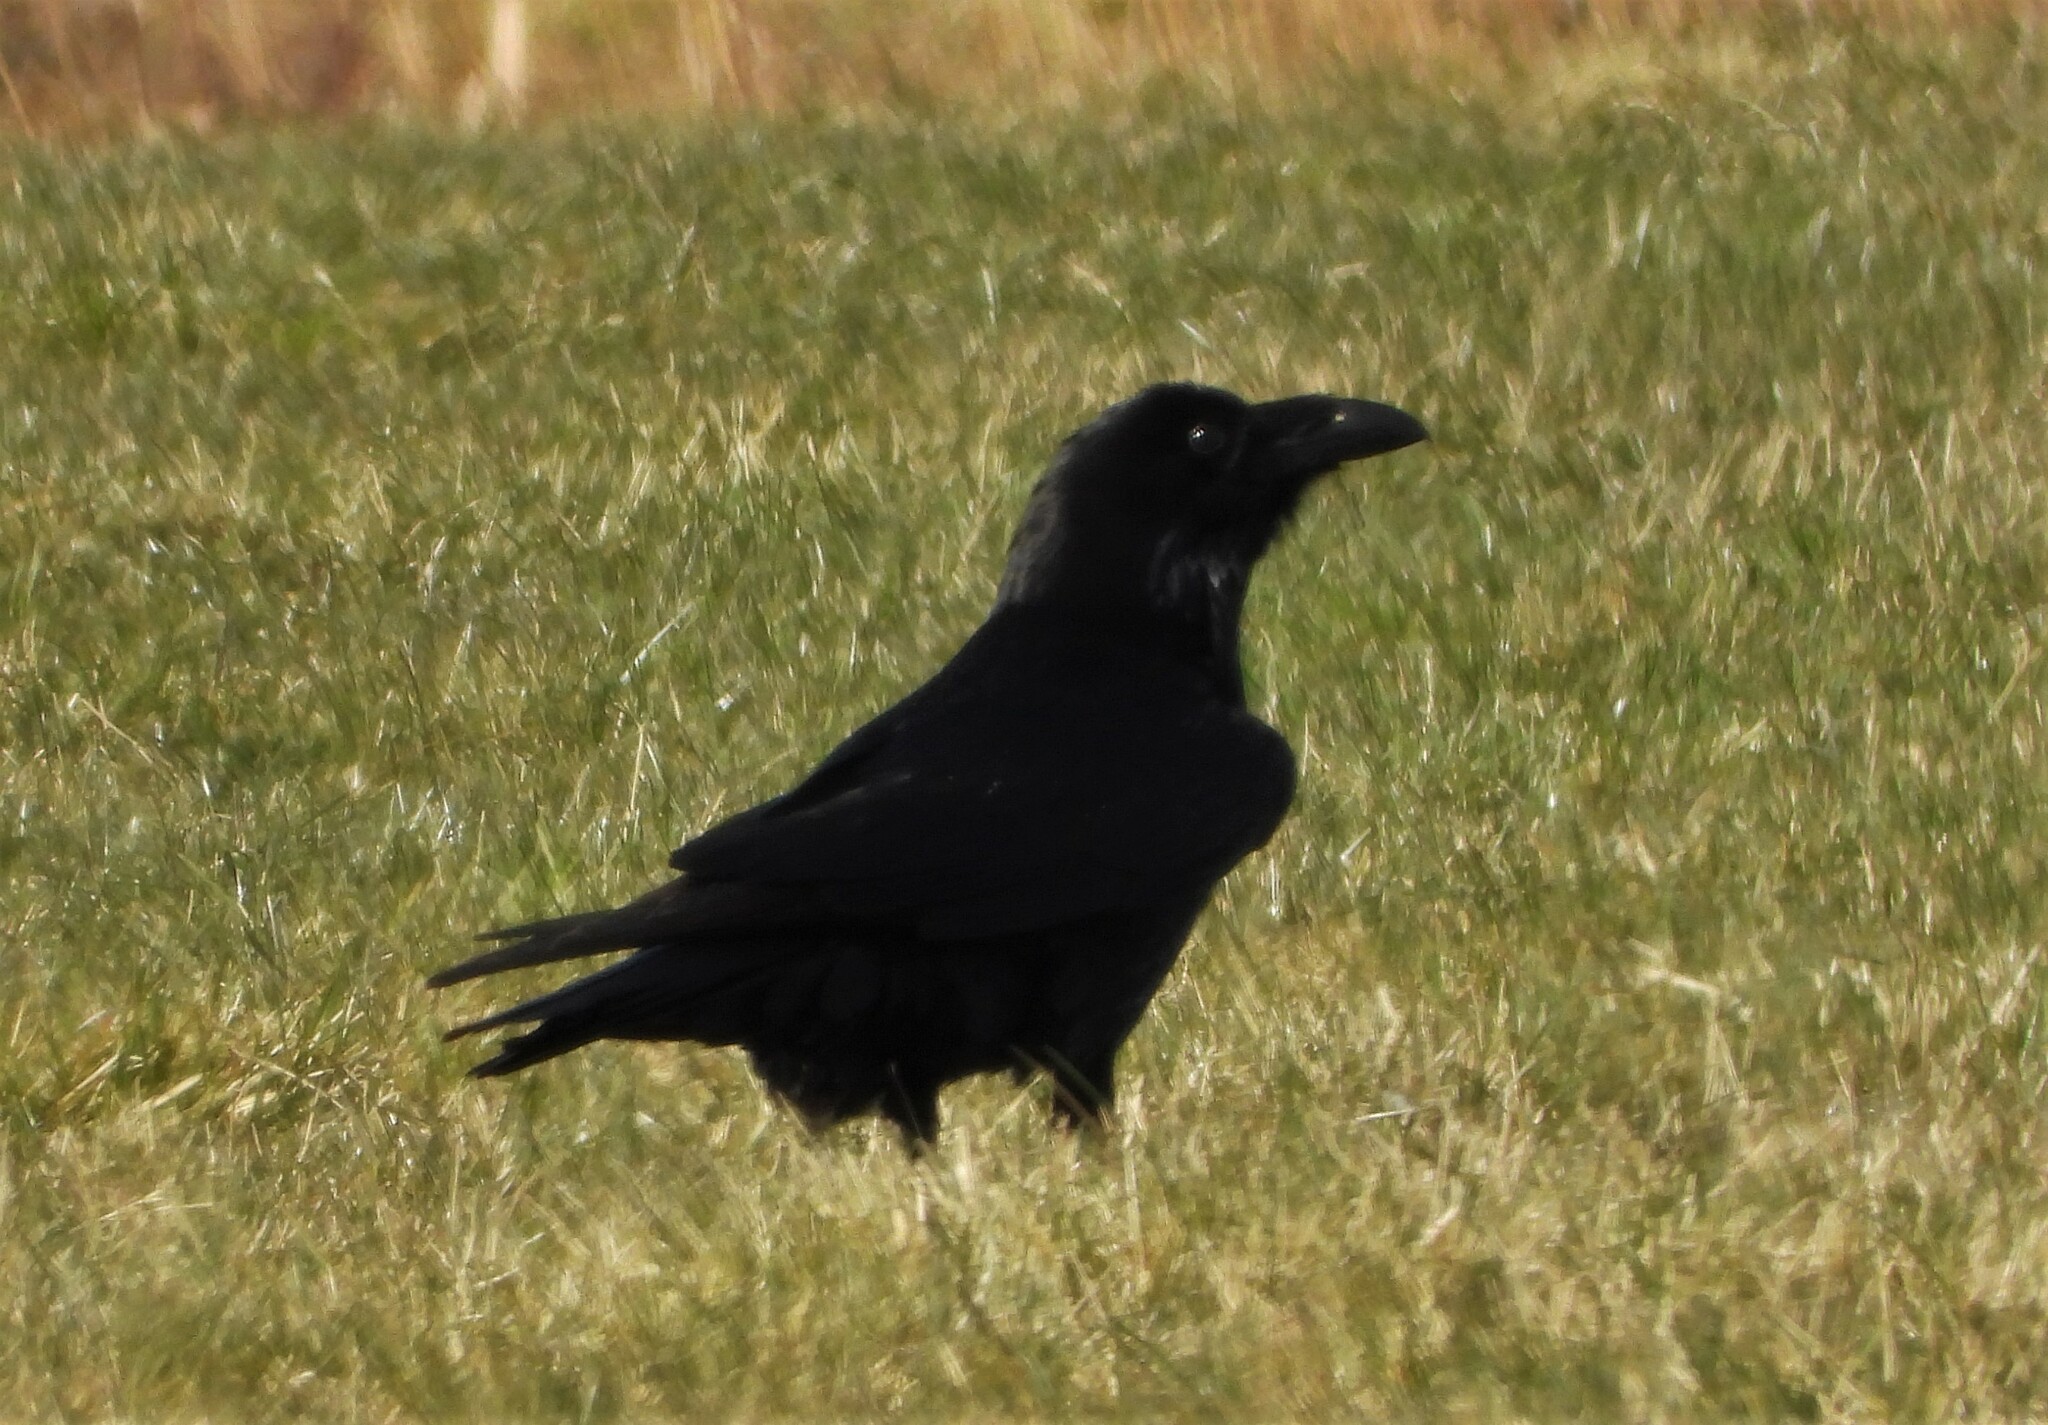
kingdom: Animalia
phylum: Chordata
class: Aves
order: Passeriformes
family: Corvidae
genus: Corvus
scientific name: Corvus corax
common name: Common raven
